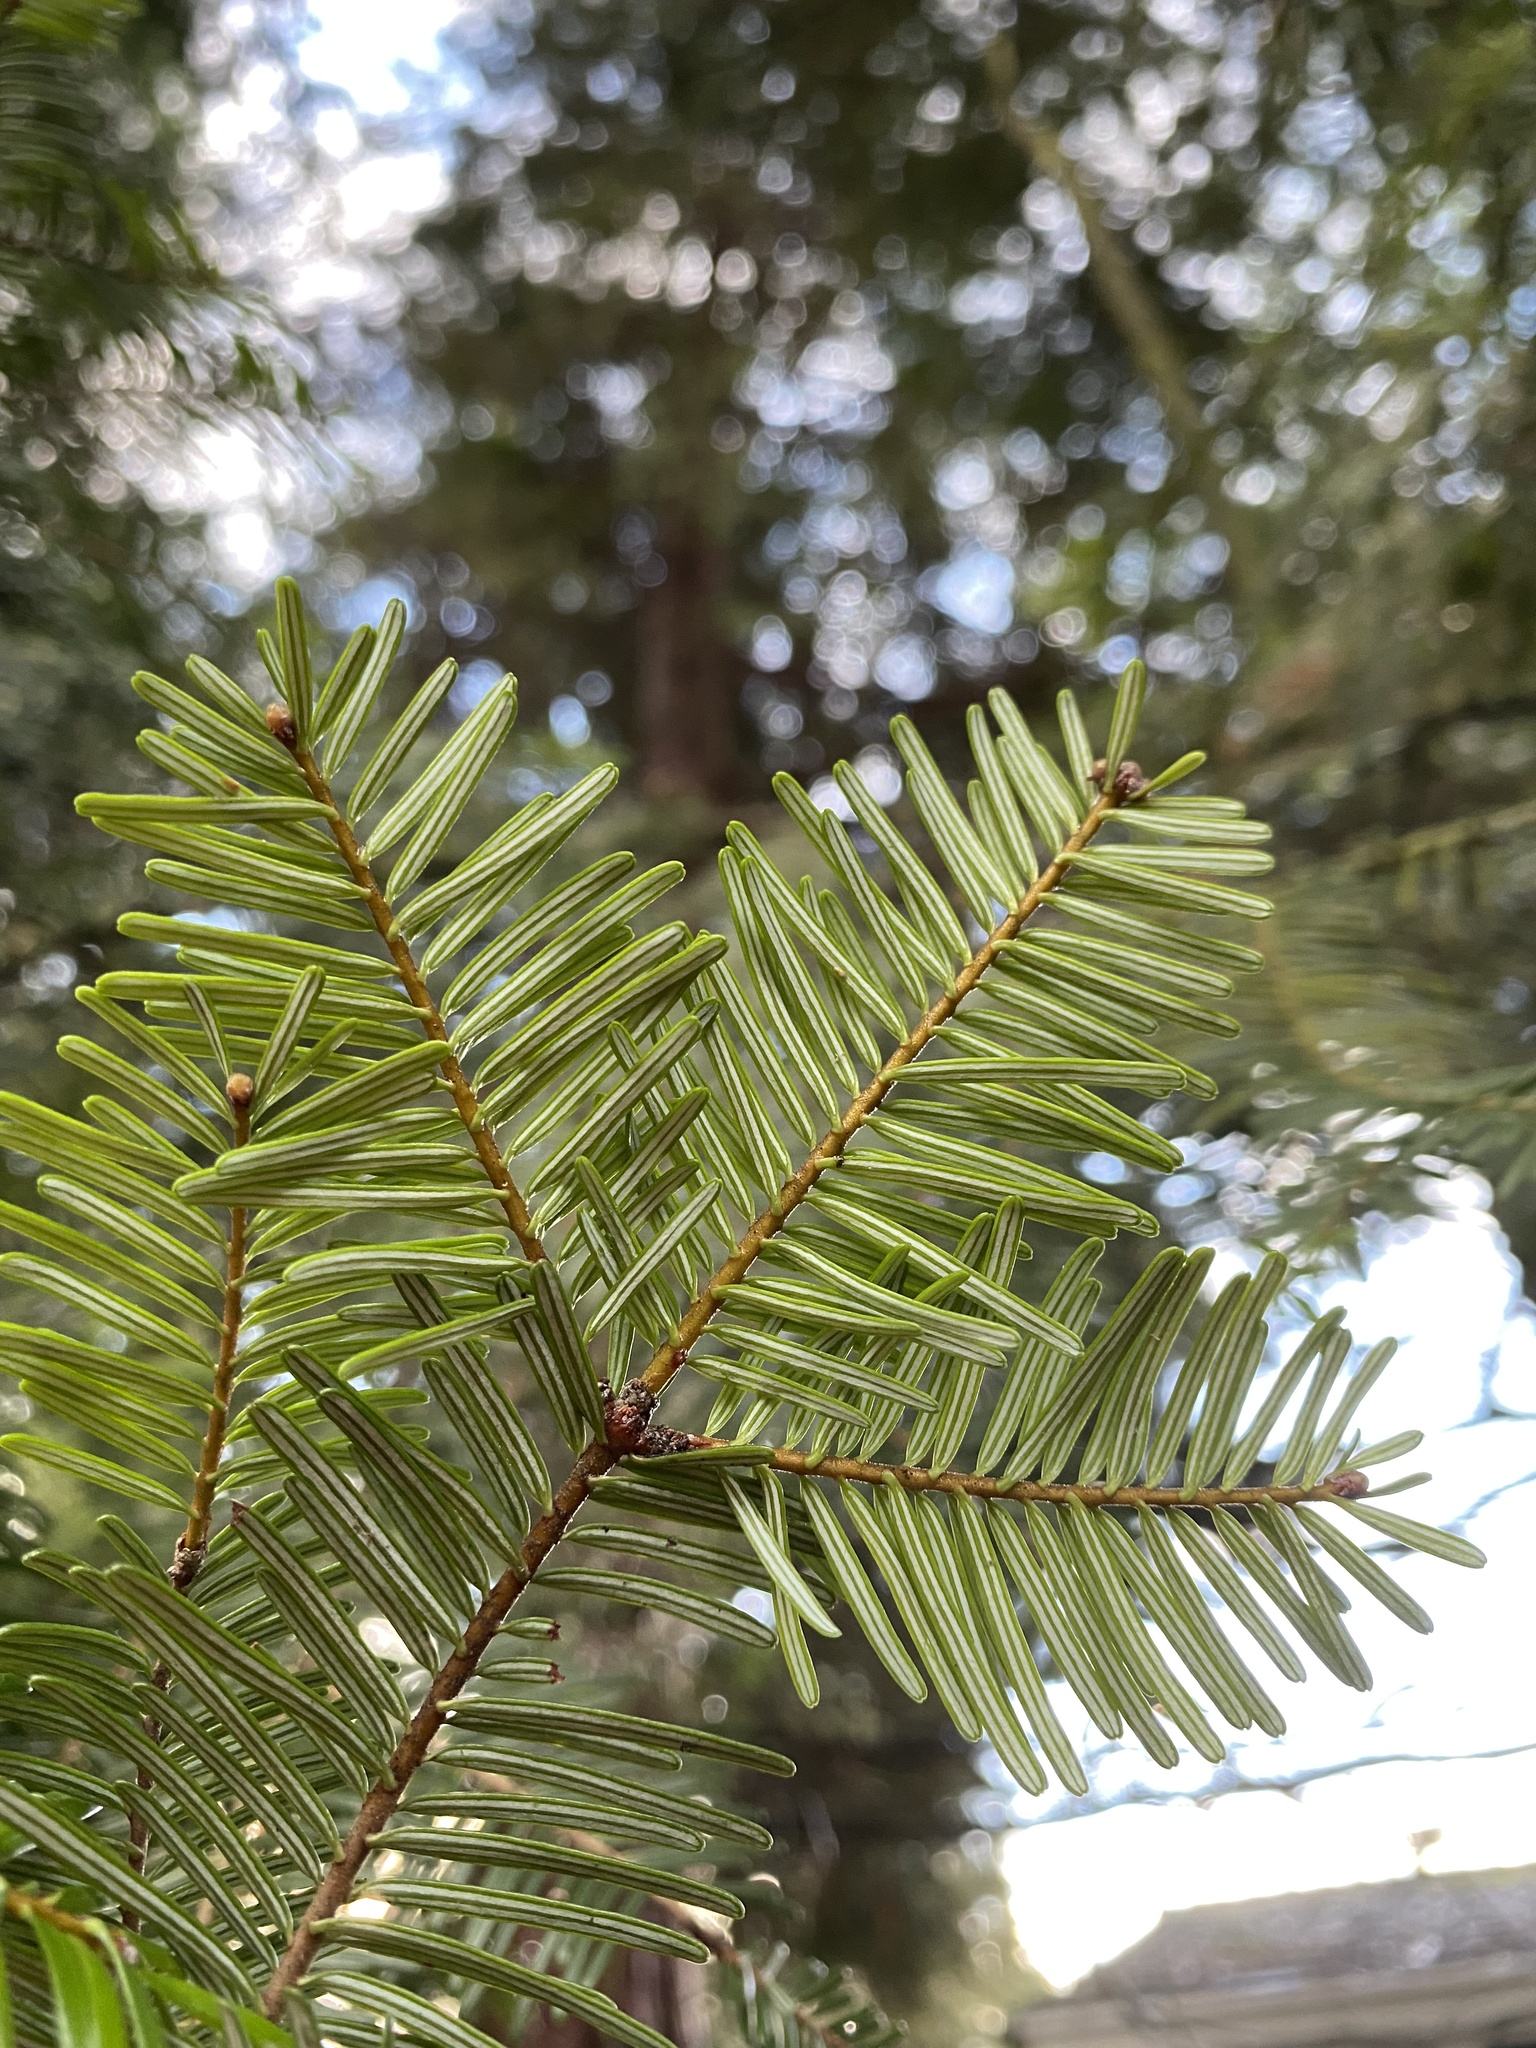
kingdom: Plantae
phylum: Tracheophyta
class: Pinopsida
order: Pinales
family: Pinaceae
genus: Abies
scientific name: Abies grandis
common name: Giant fir
